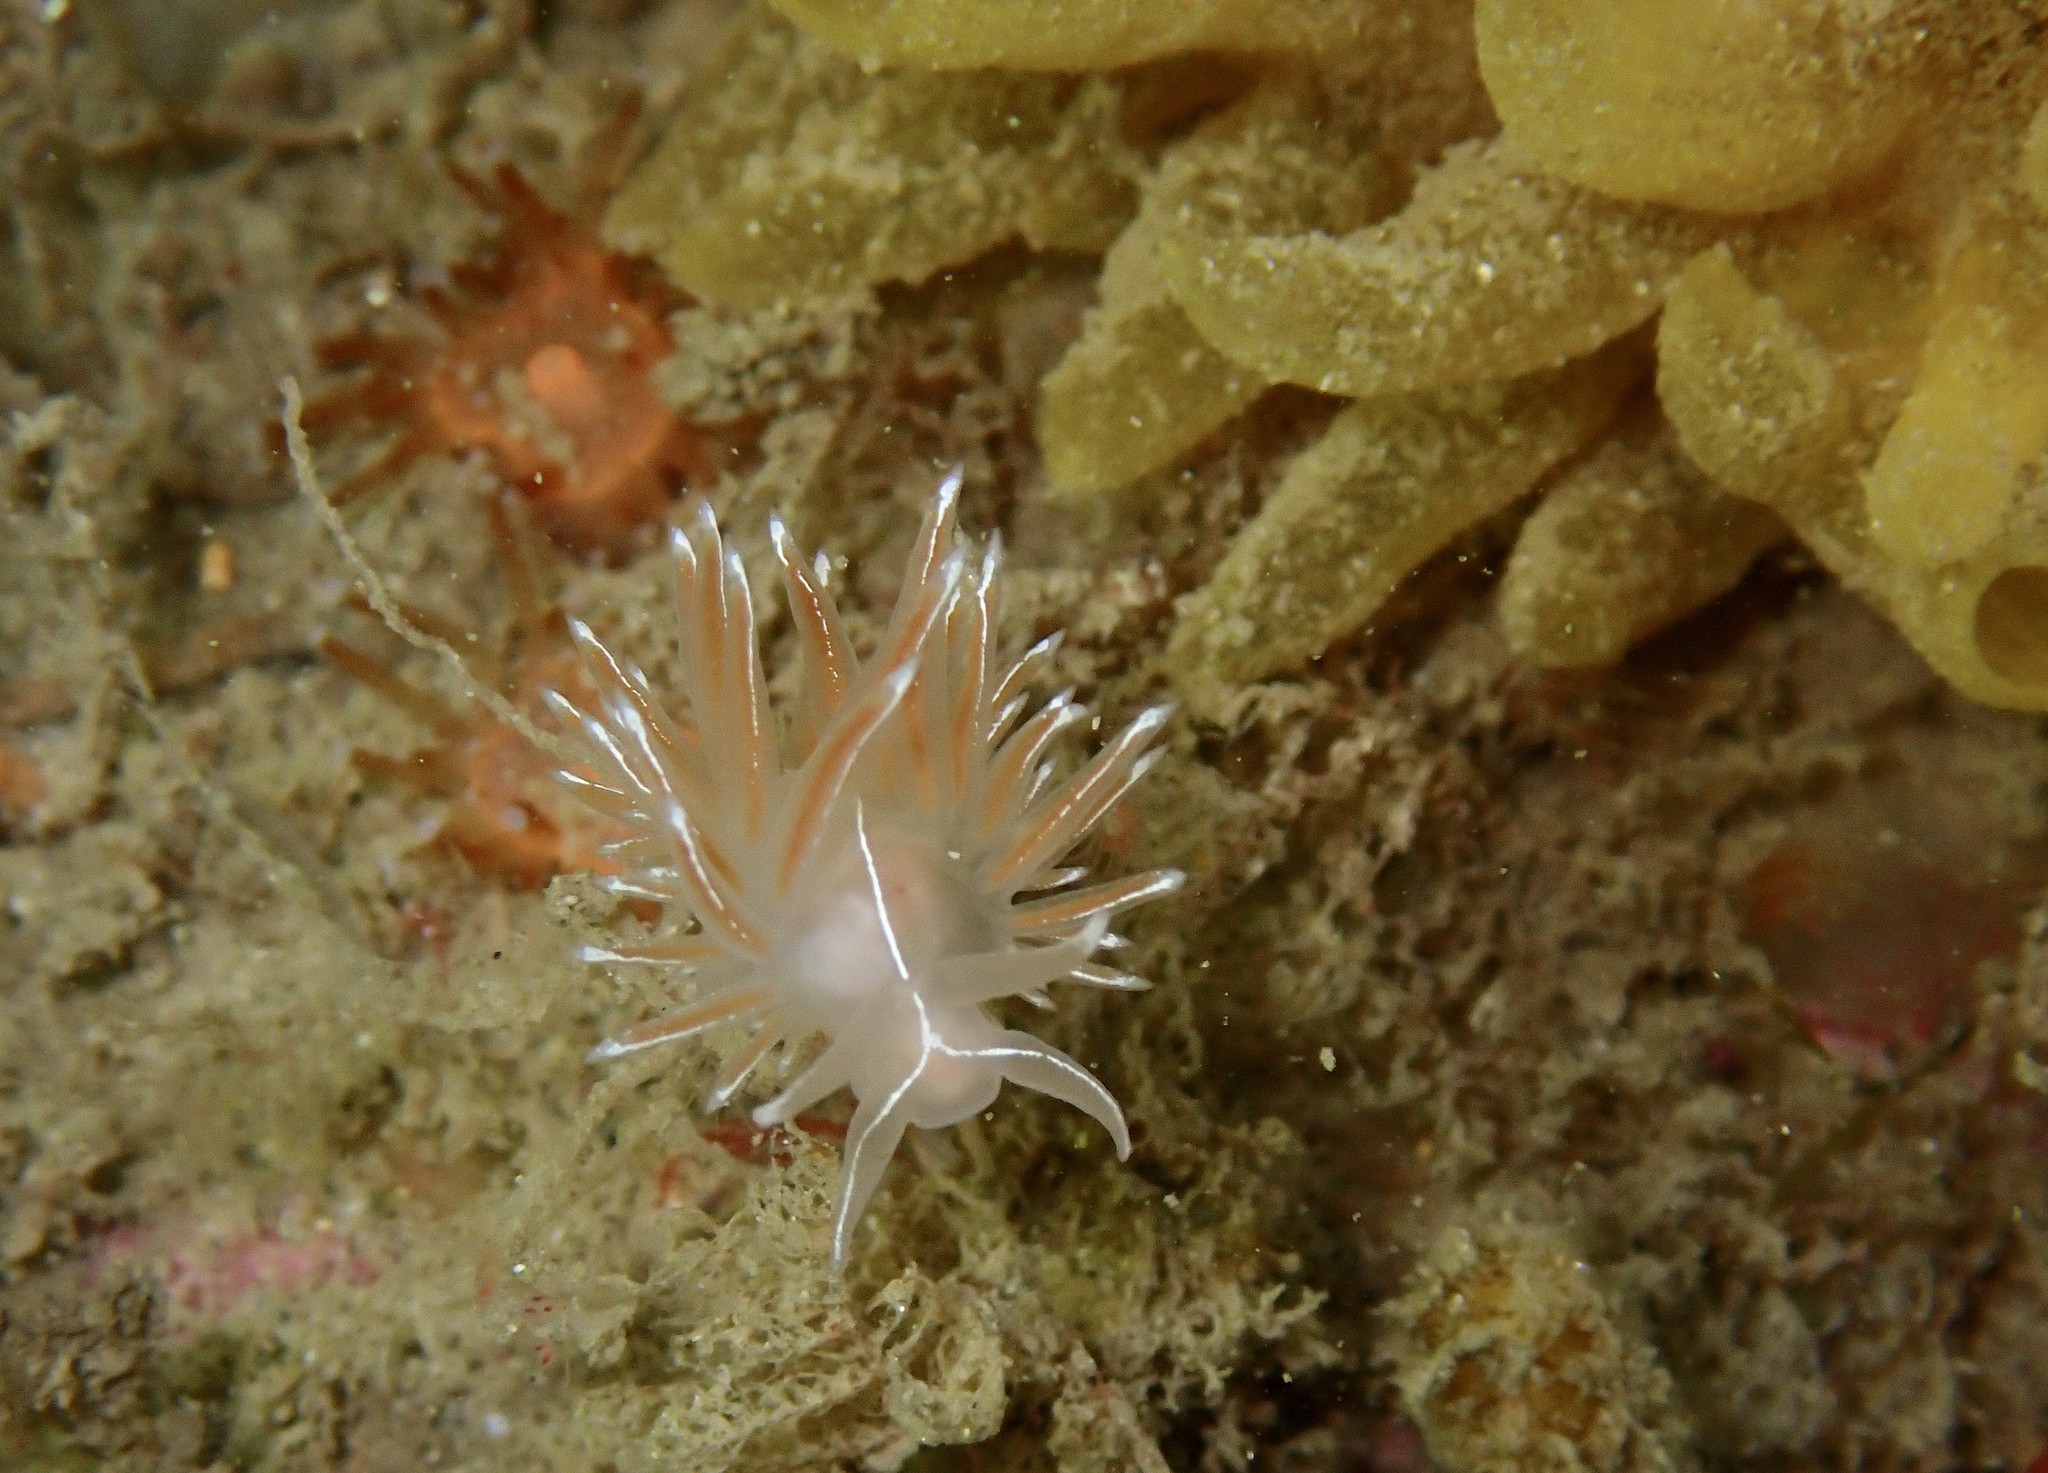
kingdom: Animalia
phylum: Mollusca
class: Gastropoda
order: Nudibranchia
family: Coryphellidae
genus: Coryphella
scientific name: Coryphella lineata
